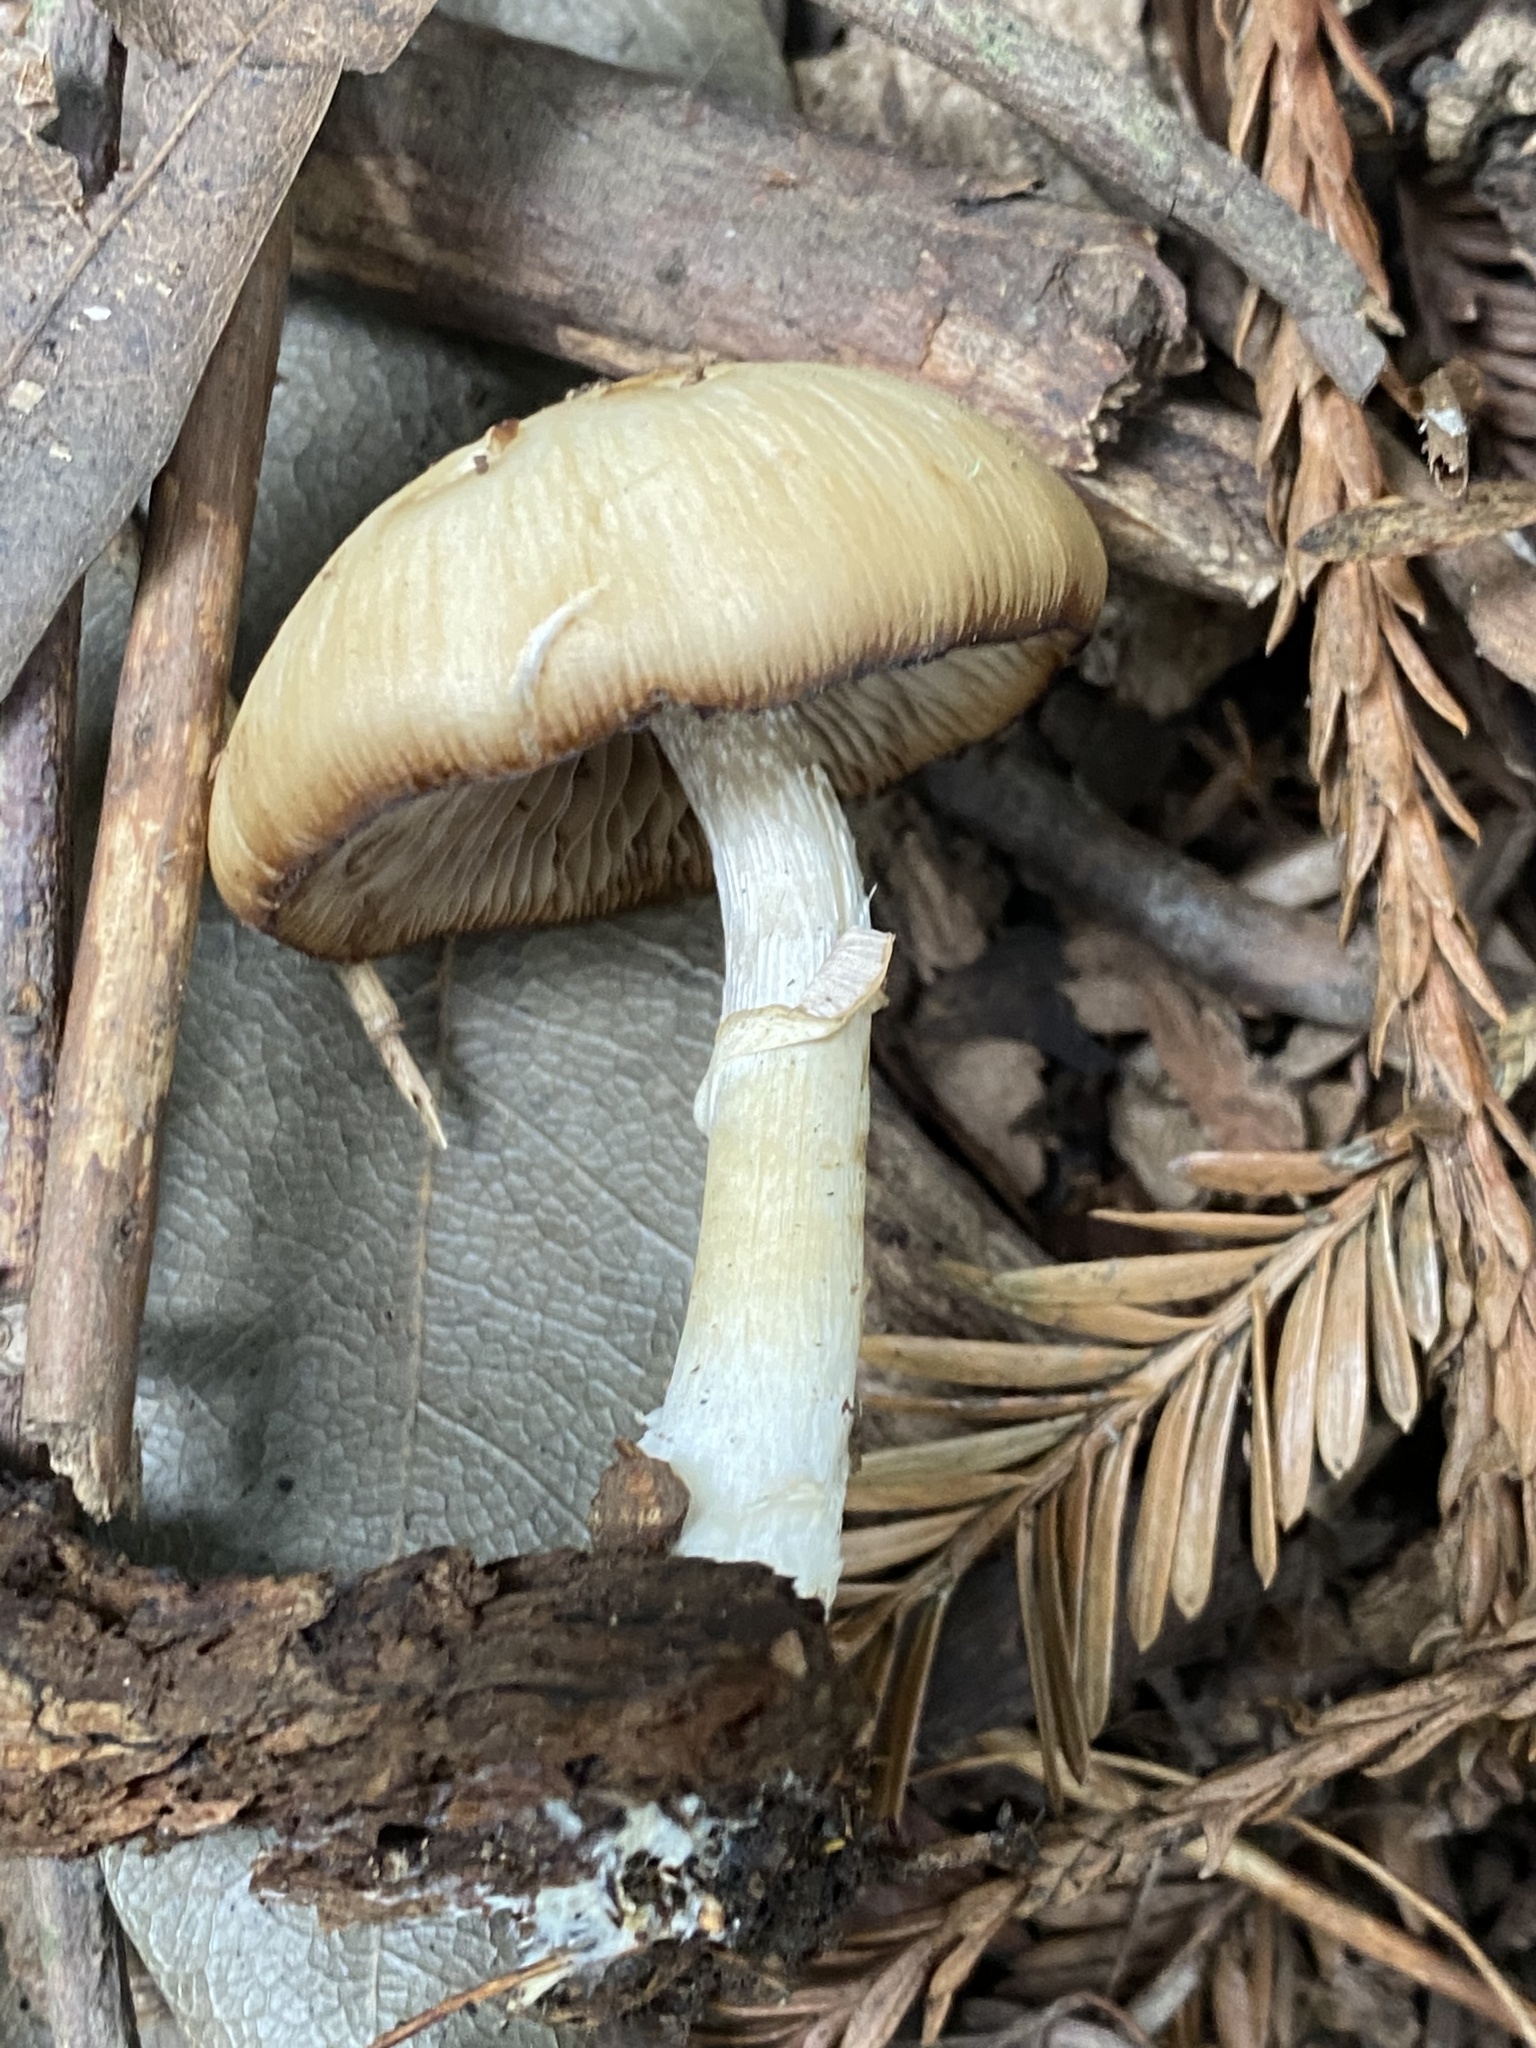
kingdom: Fungi
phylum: Basidiomycota
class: Agaricomycetes
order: Agaricales
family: Psathyrellaceae
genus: Psathyrella
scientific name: Psathyrella longistriata
